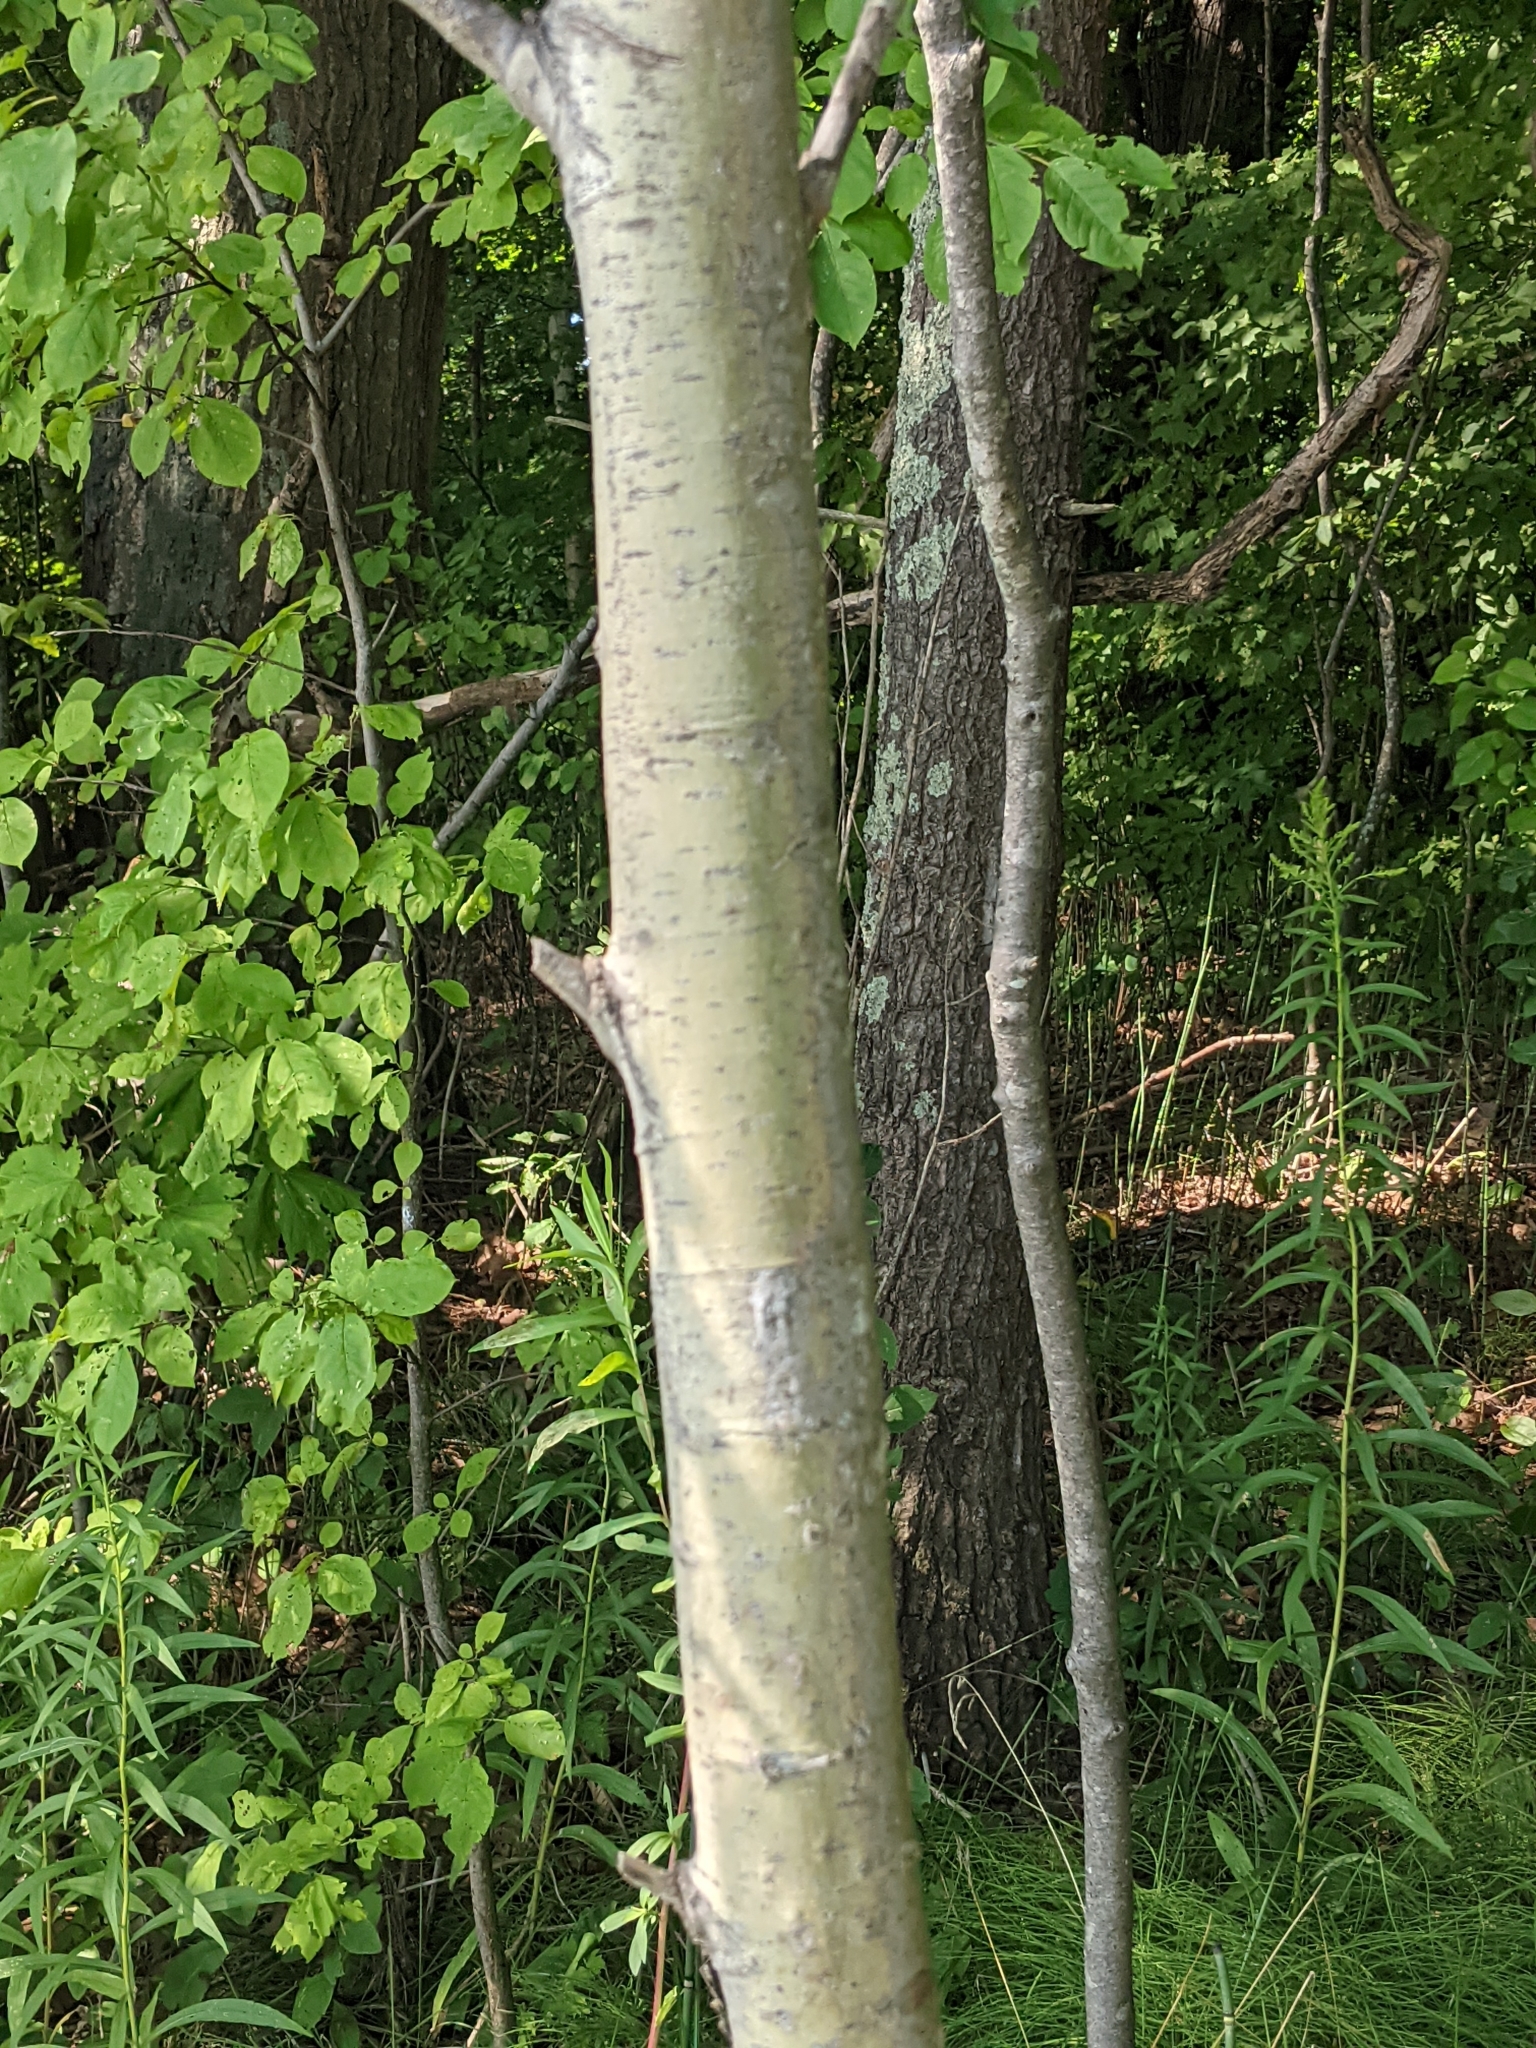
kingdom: Plantae
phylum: Tracheophyta
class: Magnoliopsida
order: Malpighiales
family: Salicaceae
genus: Populus
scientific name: Populus tremuloides
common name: Quaking aspen
